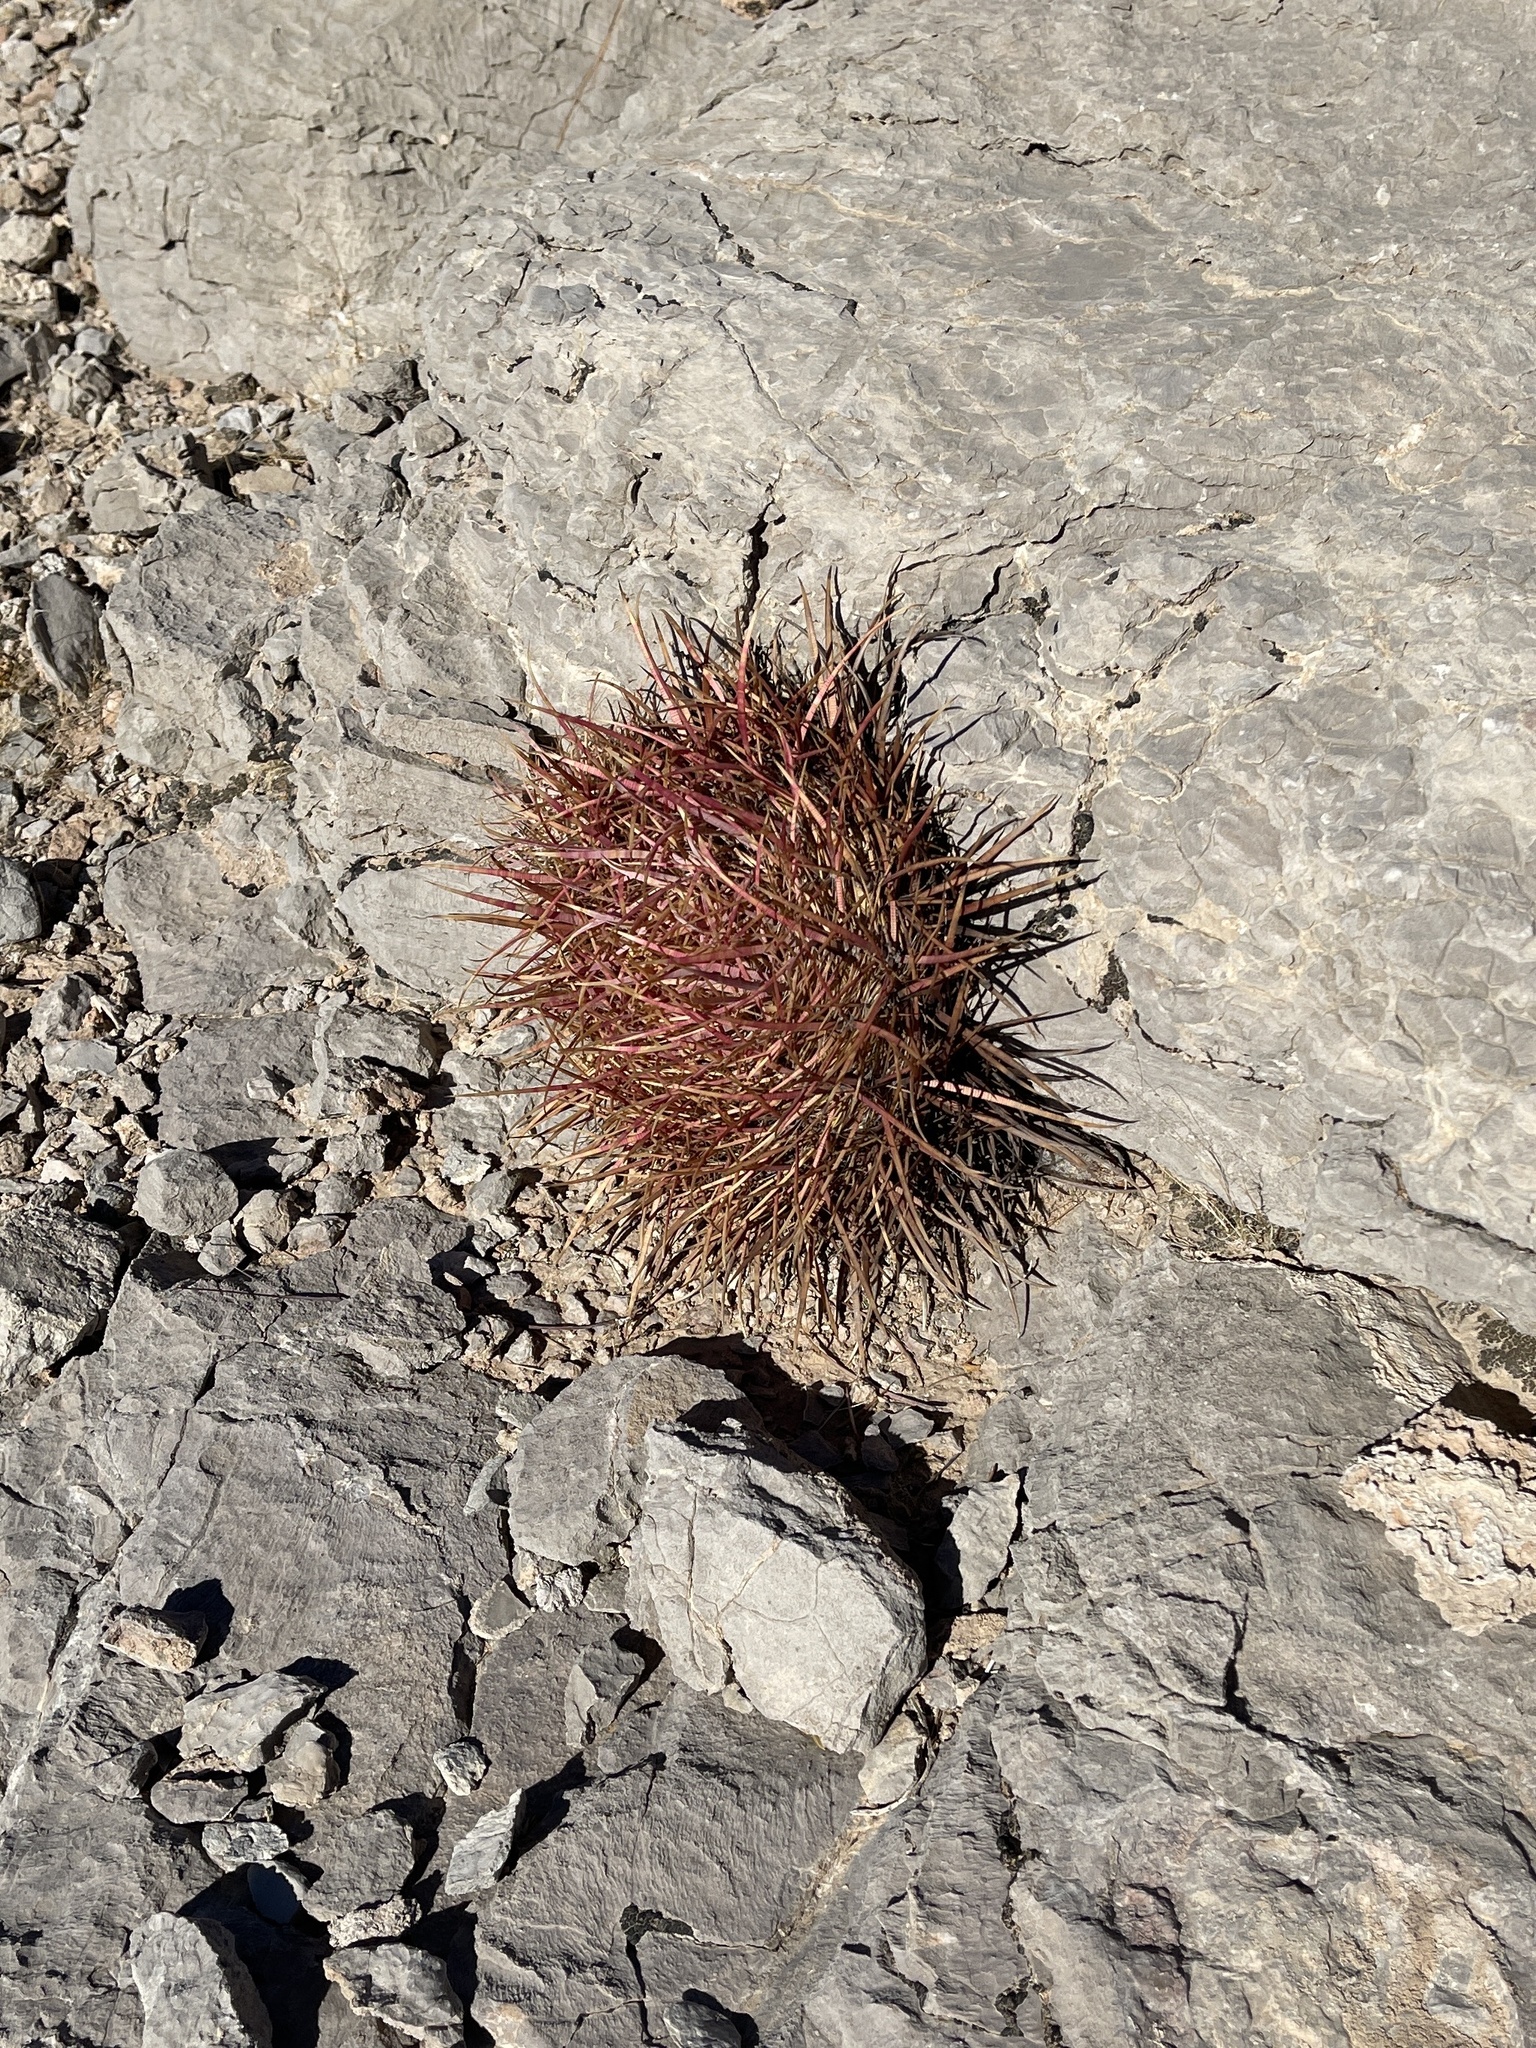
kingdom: Plantae
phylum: Tracheophyta
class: Magnoliopsida
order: Caryophyllales
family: Cactaceae
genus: Ferocactus
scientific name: Ferocactus cylindraceus
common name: California barrel cactus
